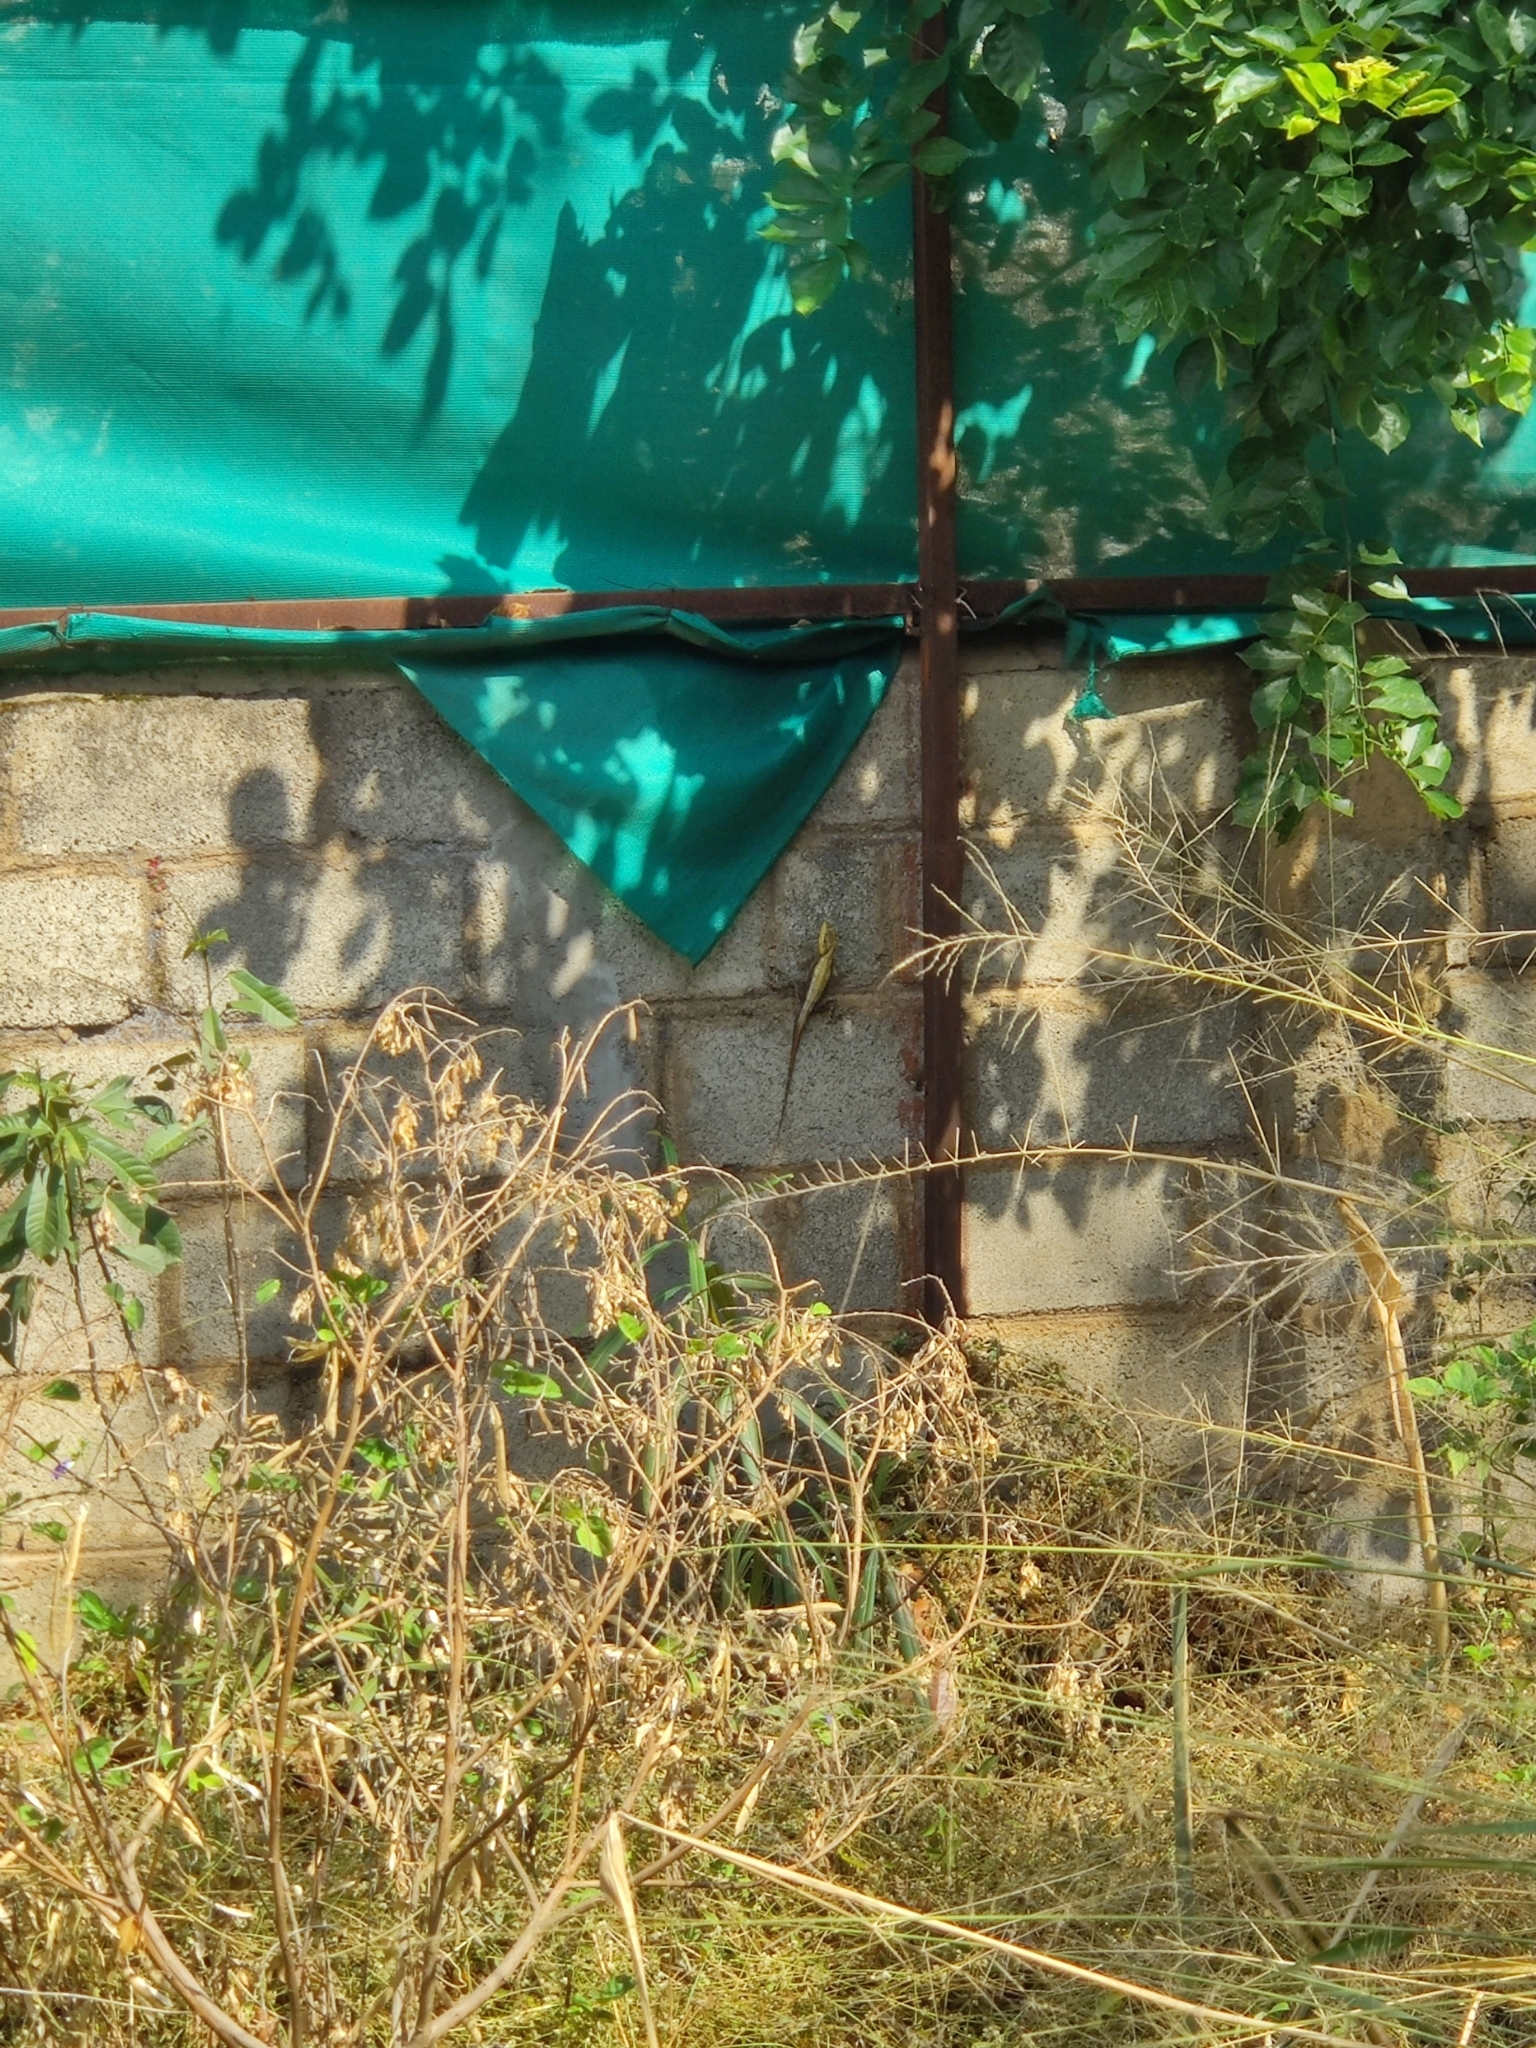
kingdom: Animalia
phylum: Chordata
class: Squamata
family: Agamidae
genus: Psammophilus
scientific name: Psammophilus dorsalis
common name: South indian rock agama
